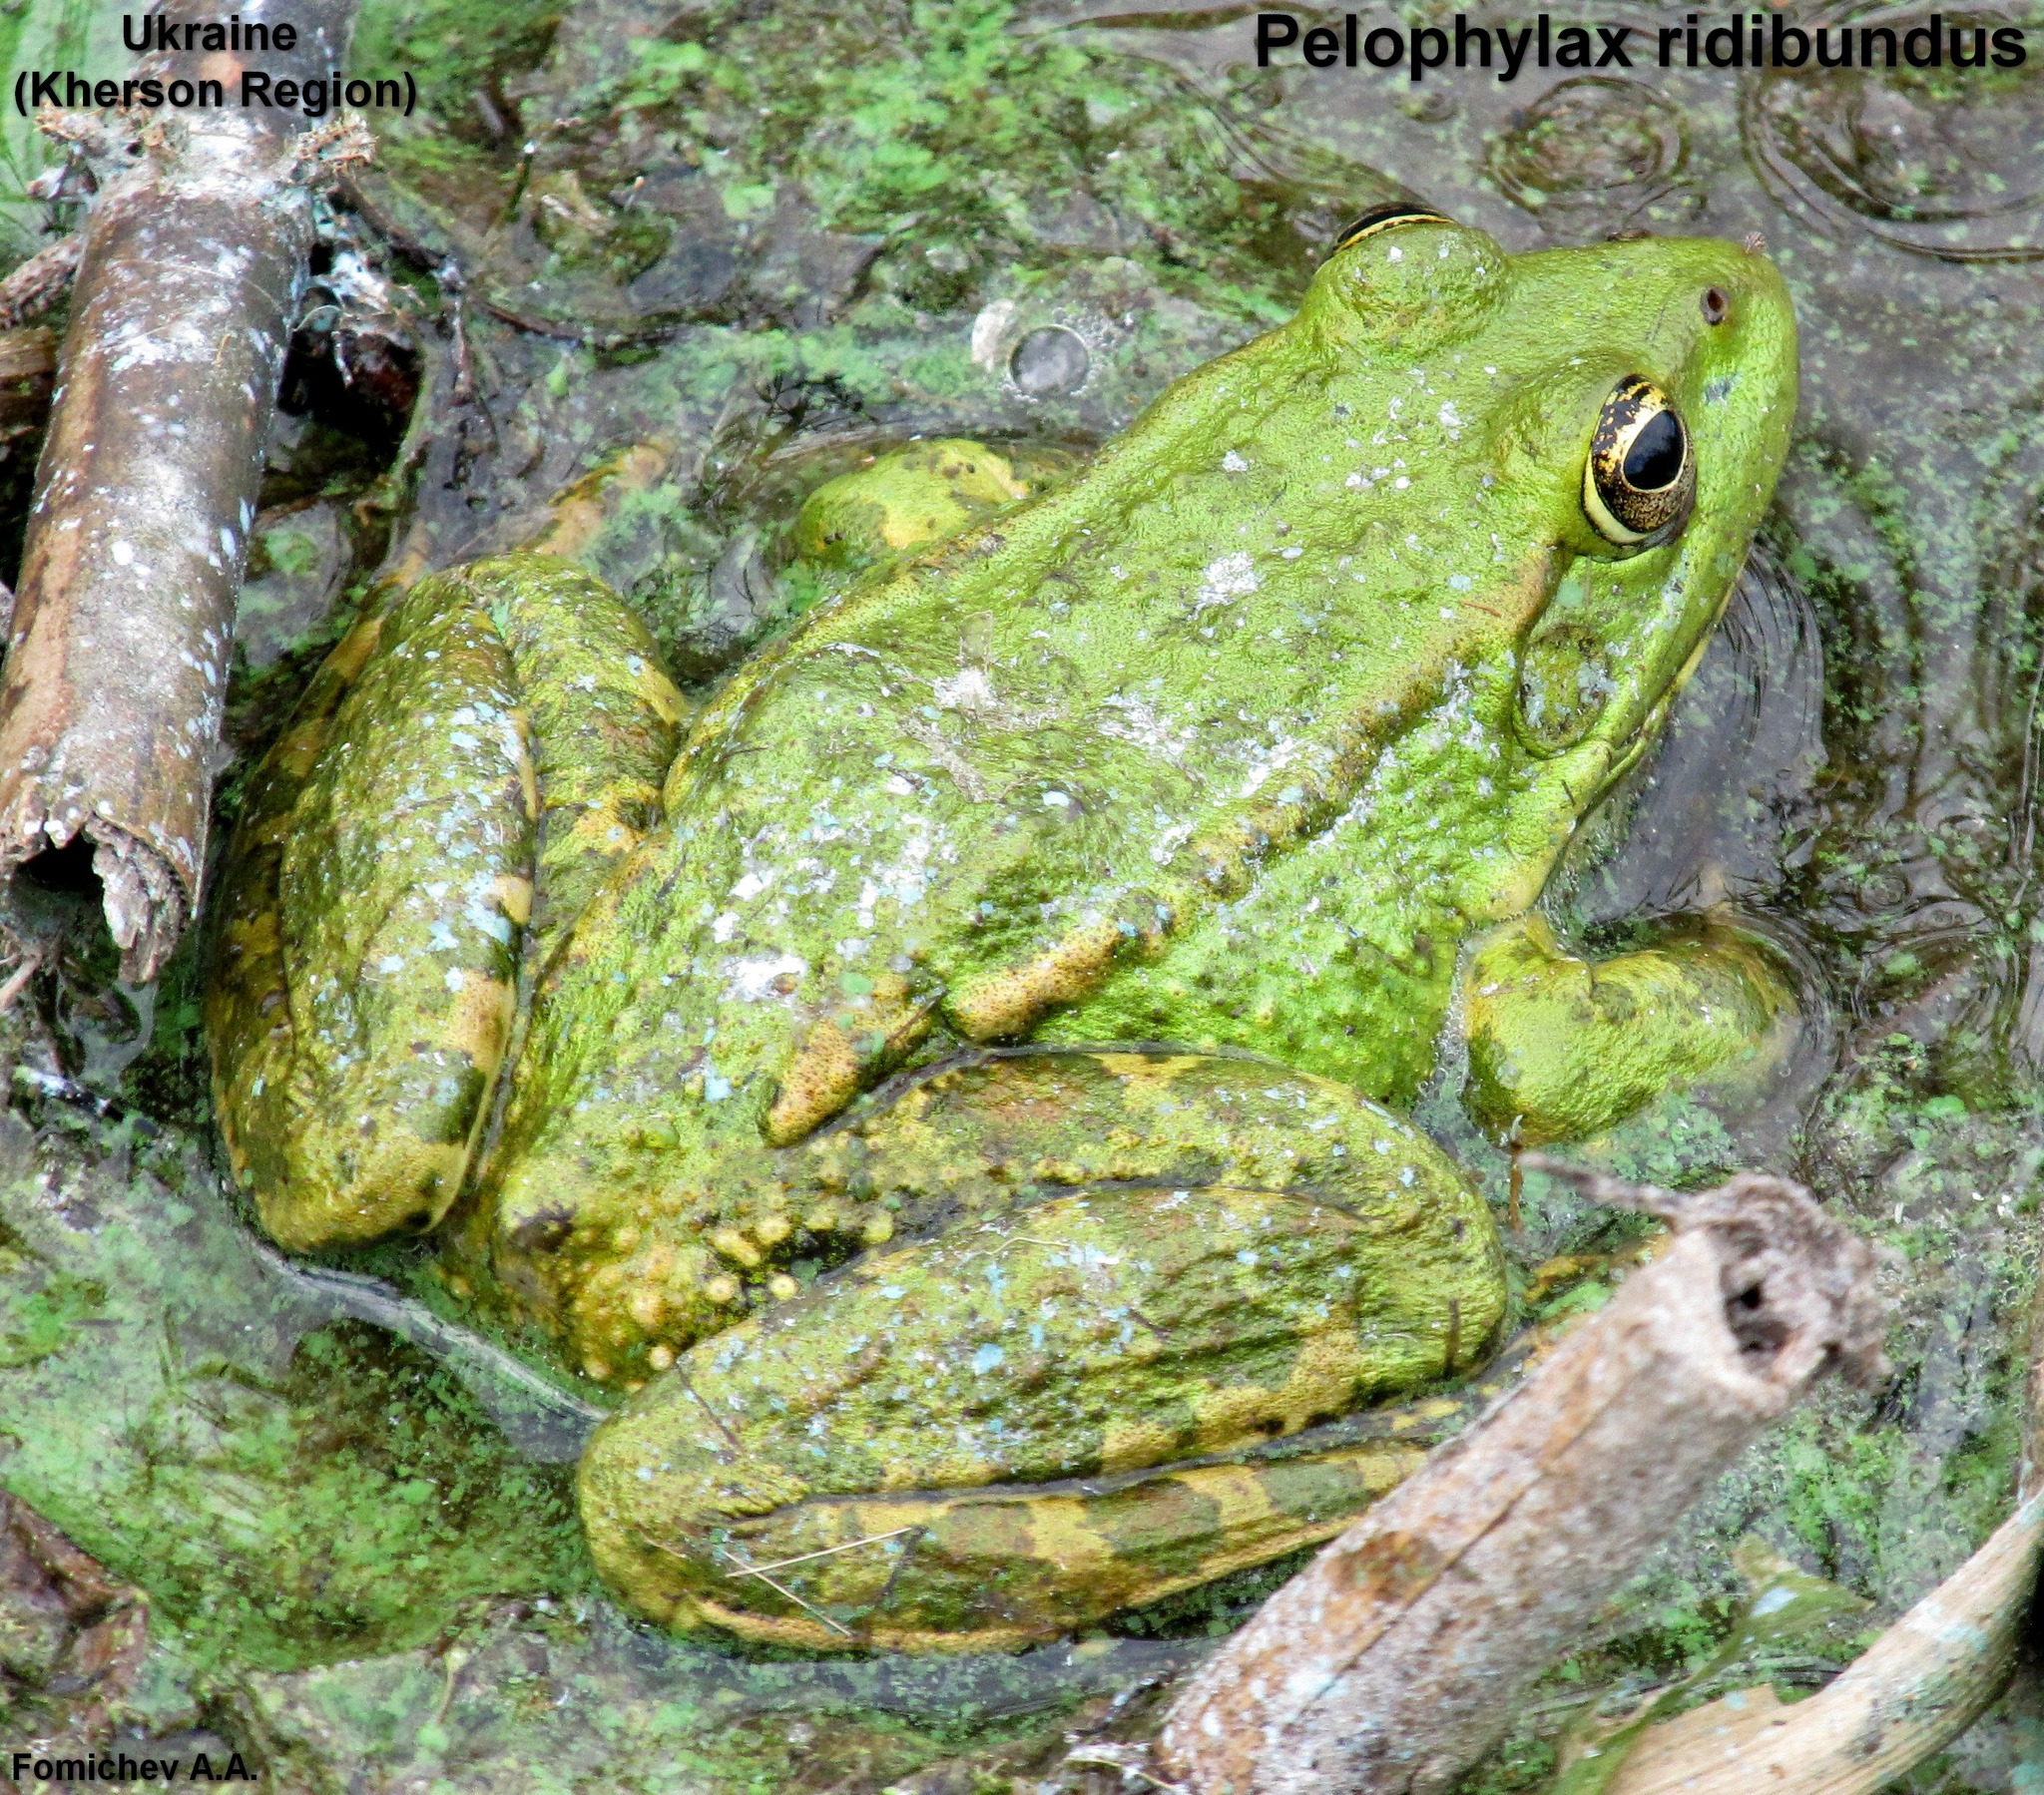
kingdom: Animalia
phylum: Chordata
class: Amphibia
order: Anura
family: Ranidae
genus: Pelophylax
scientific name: Pelophylax ridibundus
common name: Marsh frog
